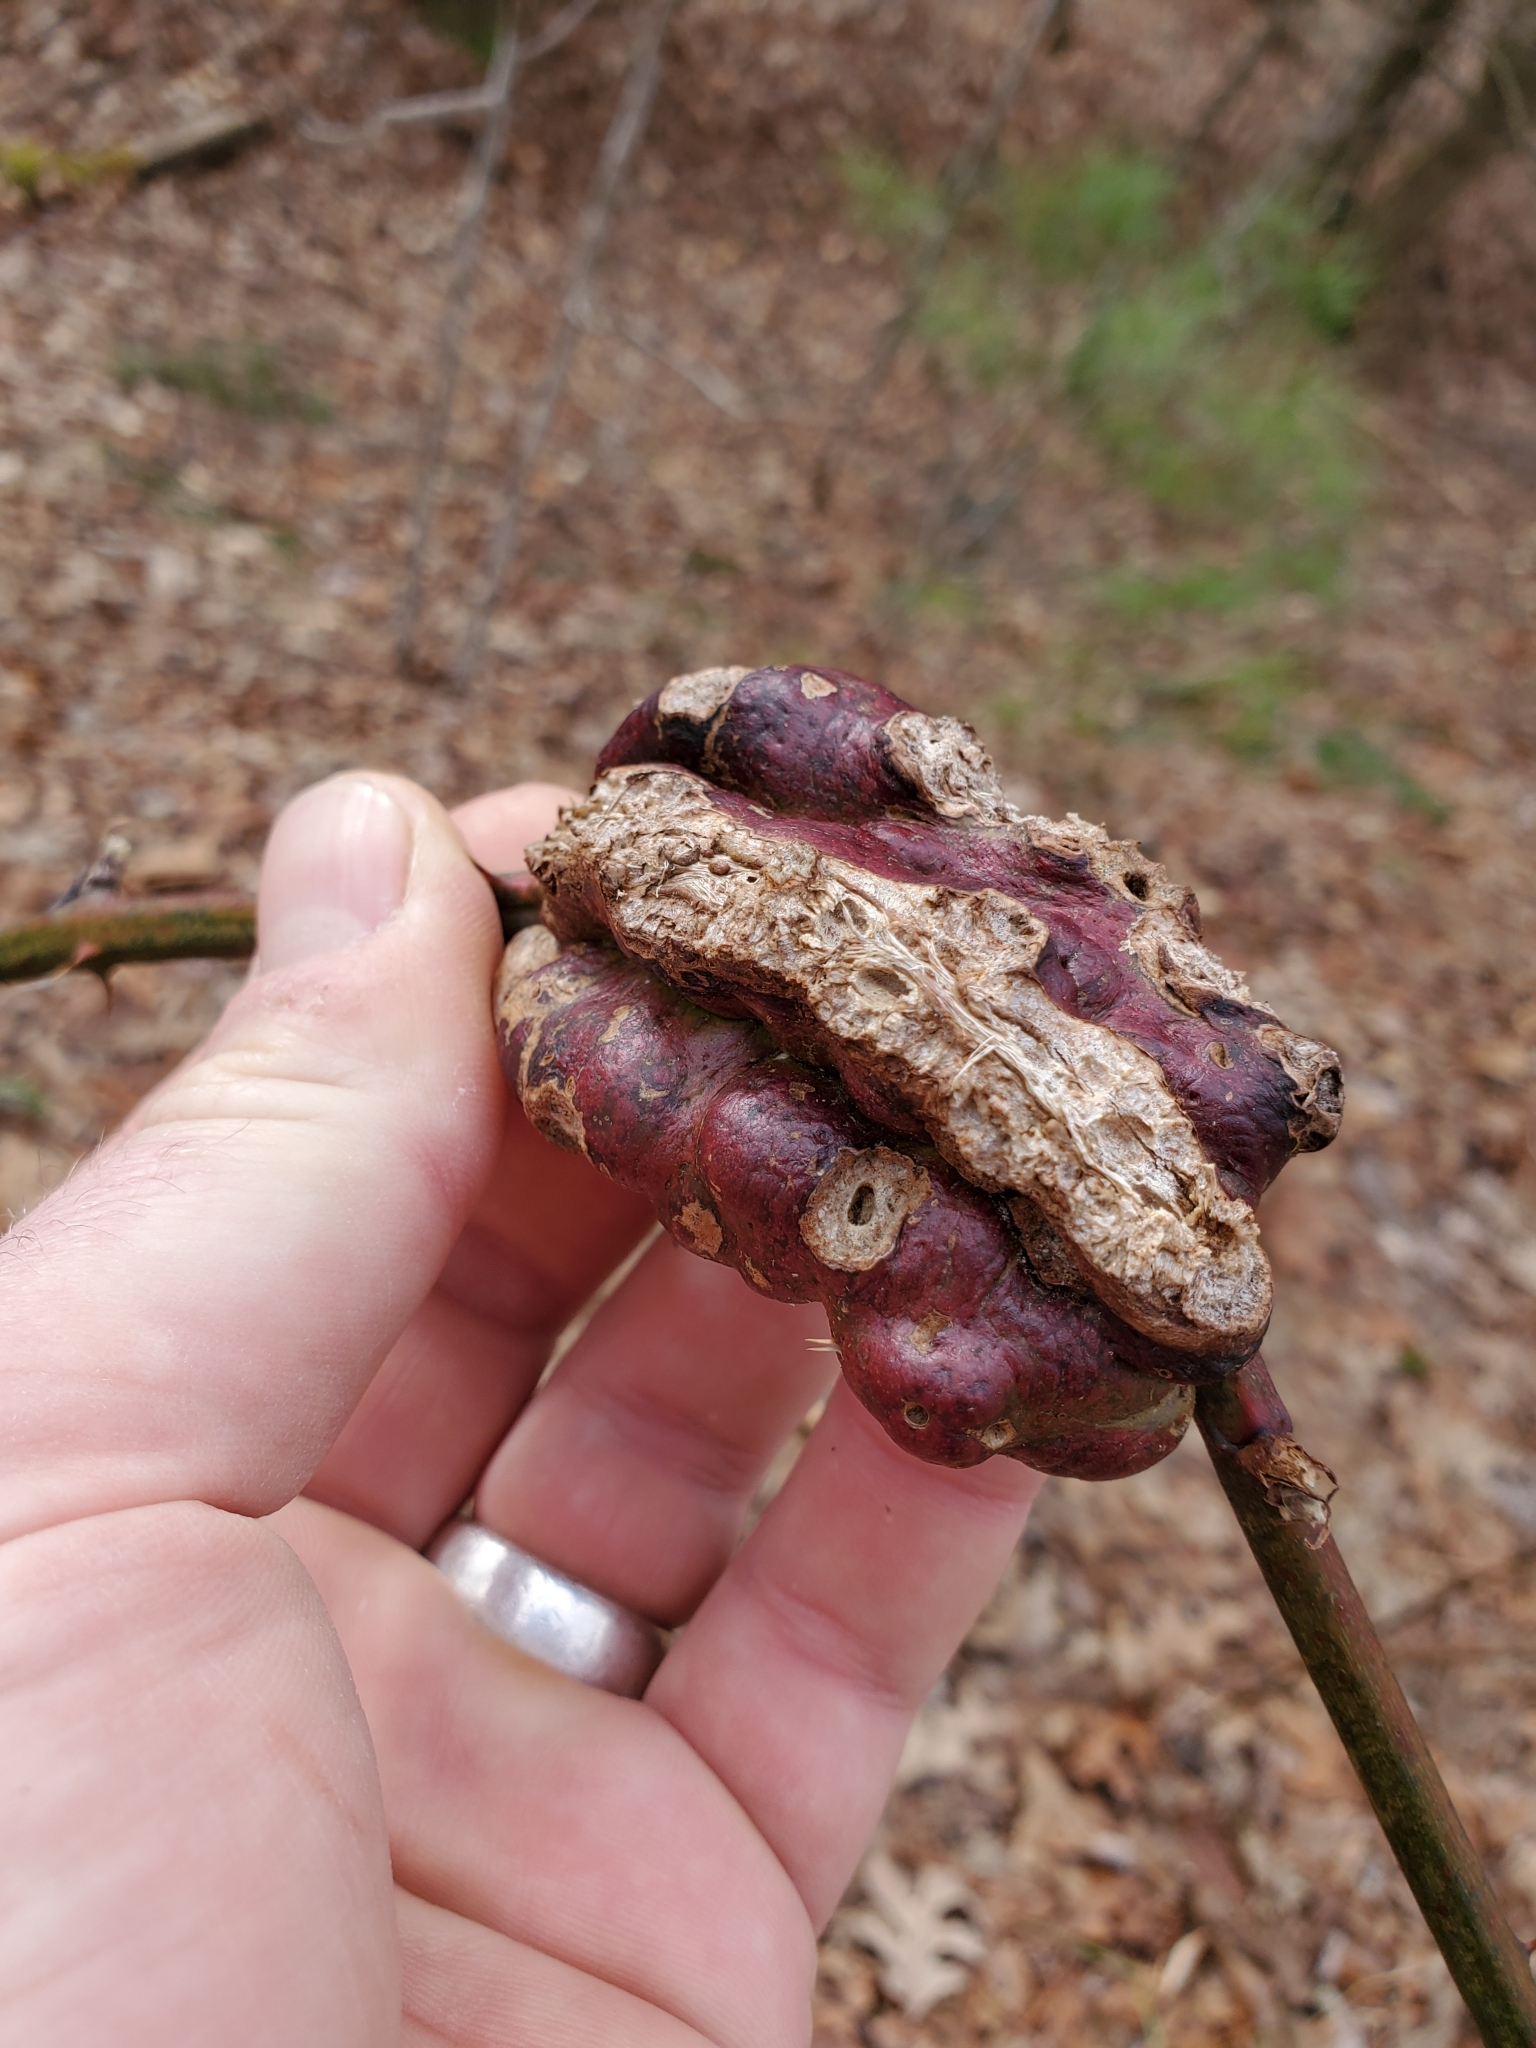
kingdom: Animalia
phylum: Arthropoda
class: Insecta
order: Hymenoptera
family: Cynipidae
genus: Diastrophus
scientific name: Diastrophus
